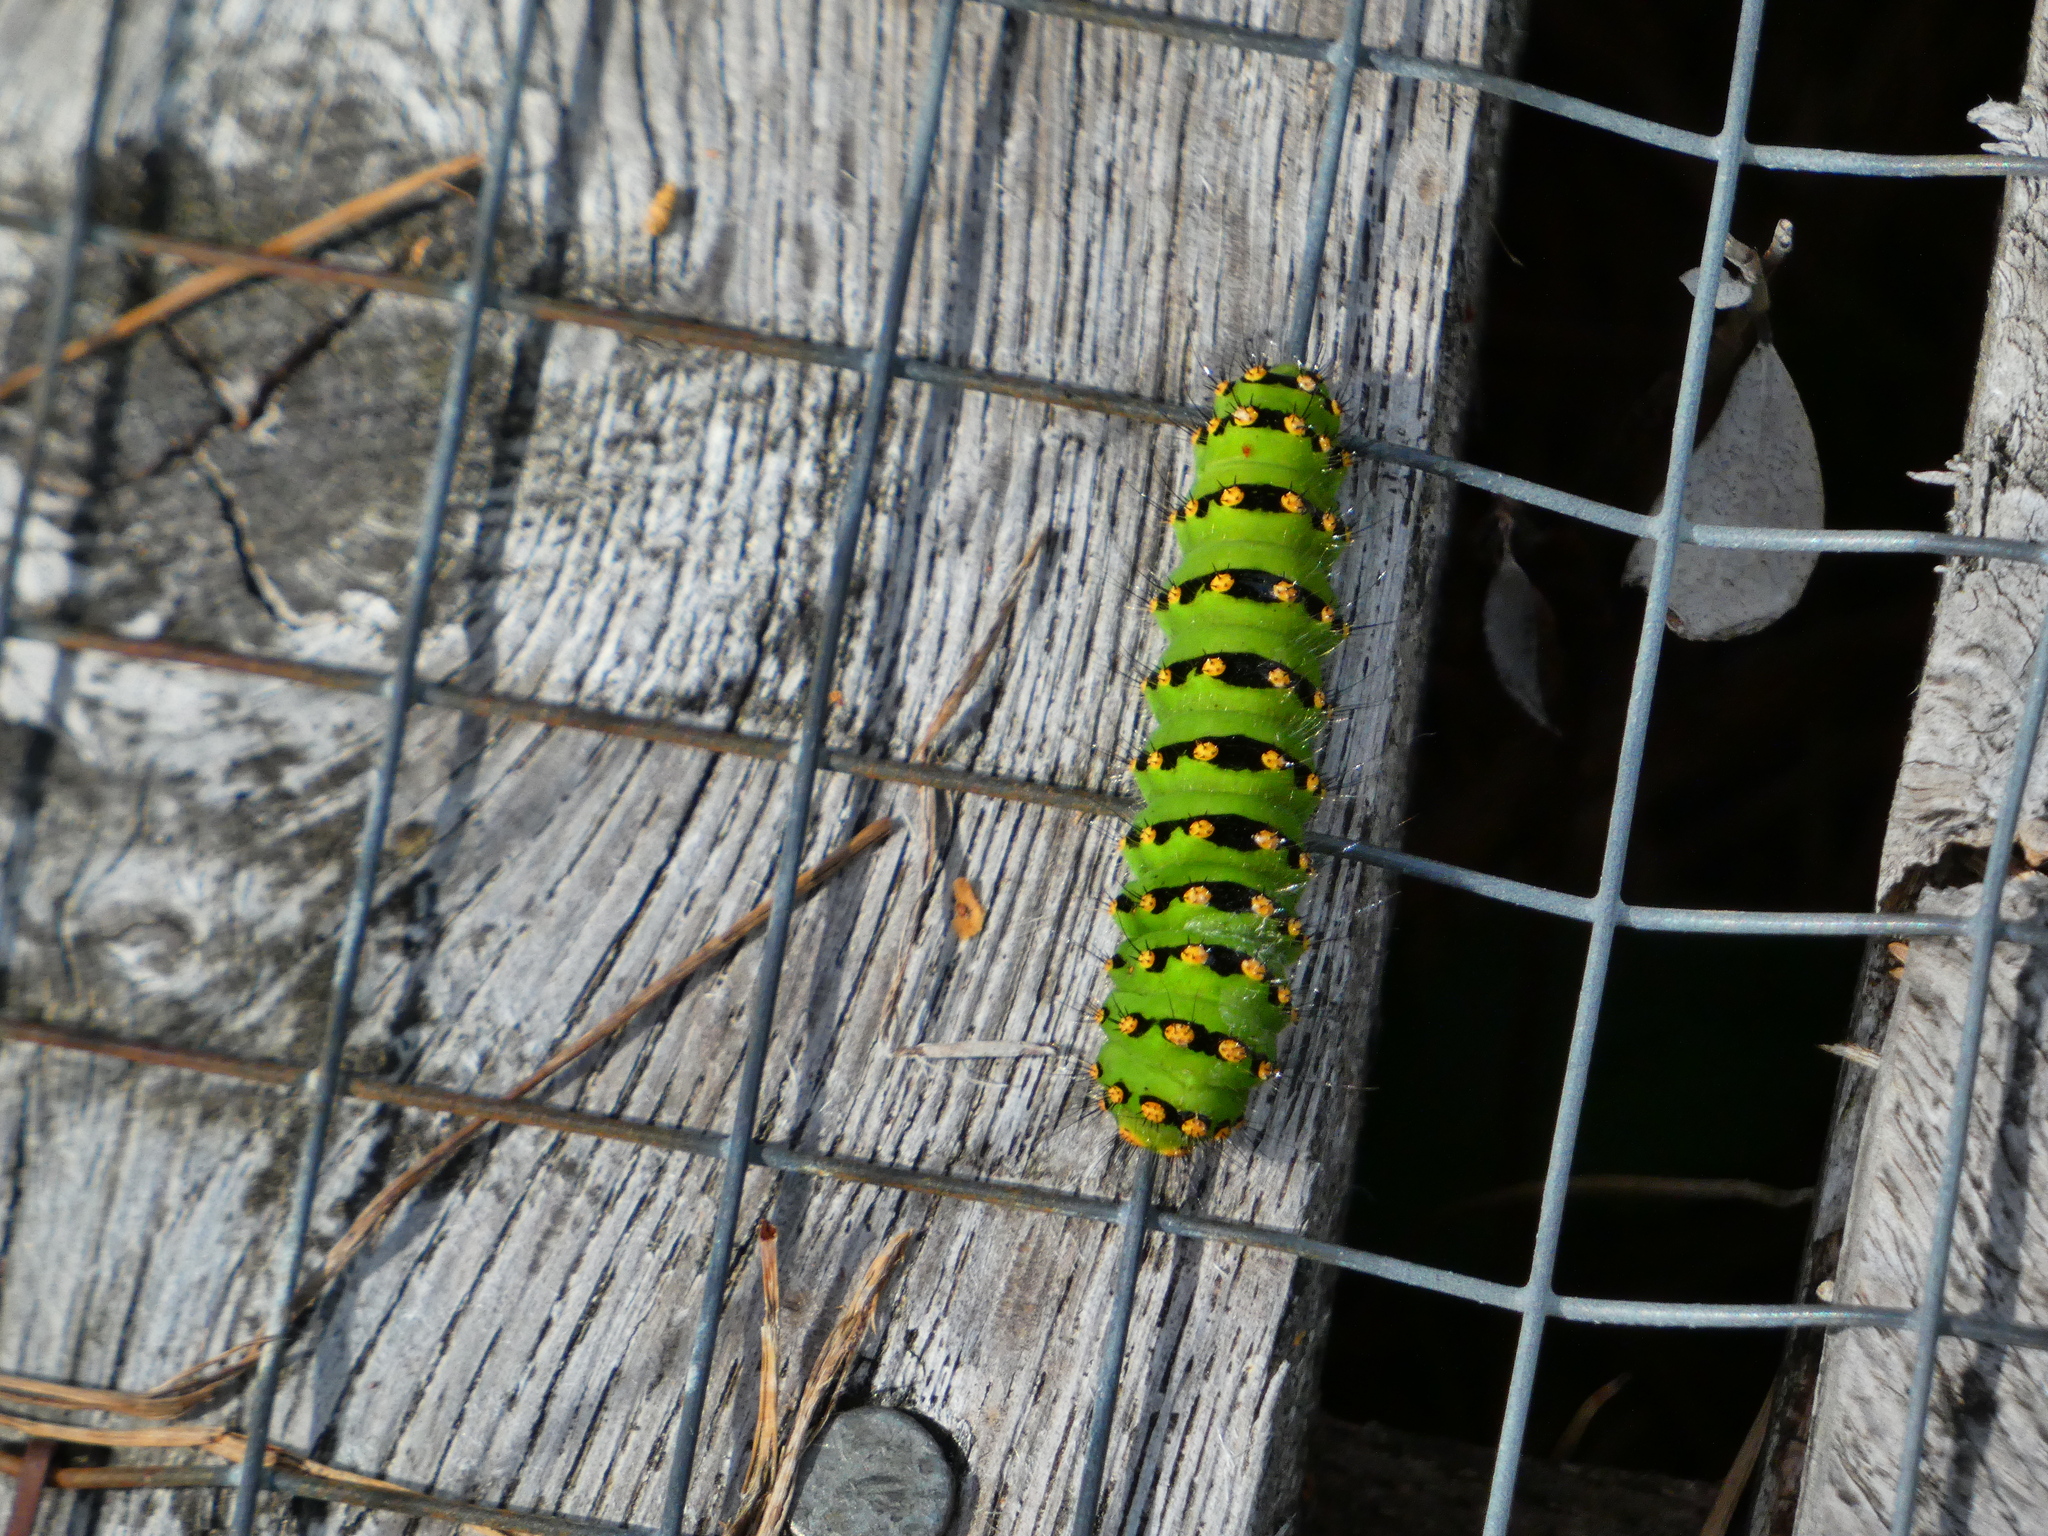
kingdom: Animalia
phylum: Arthropoda
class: Insecta
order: Lepidoptera
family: Saturniidae
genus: Saturnia
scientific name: Saturnia pavonia
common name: Emperor moth
